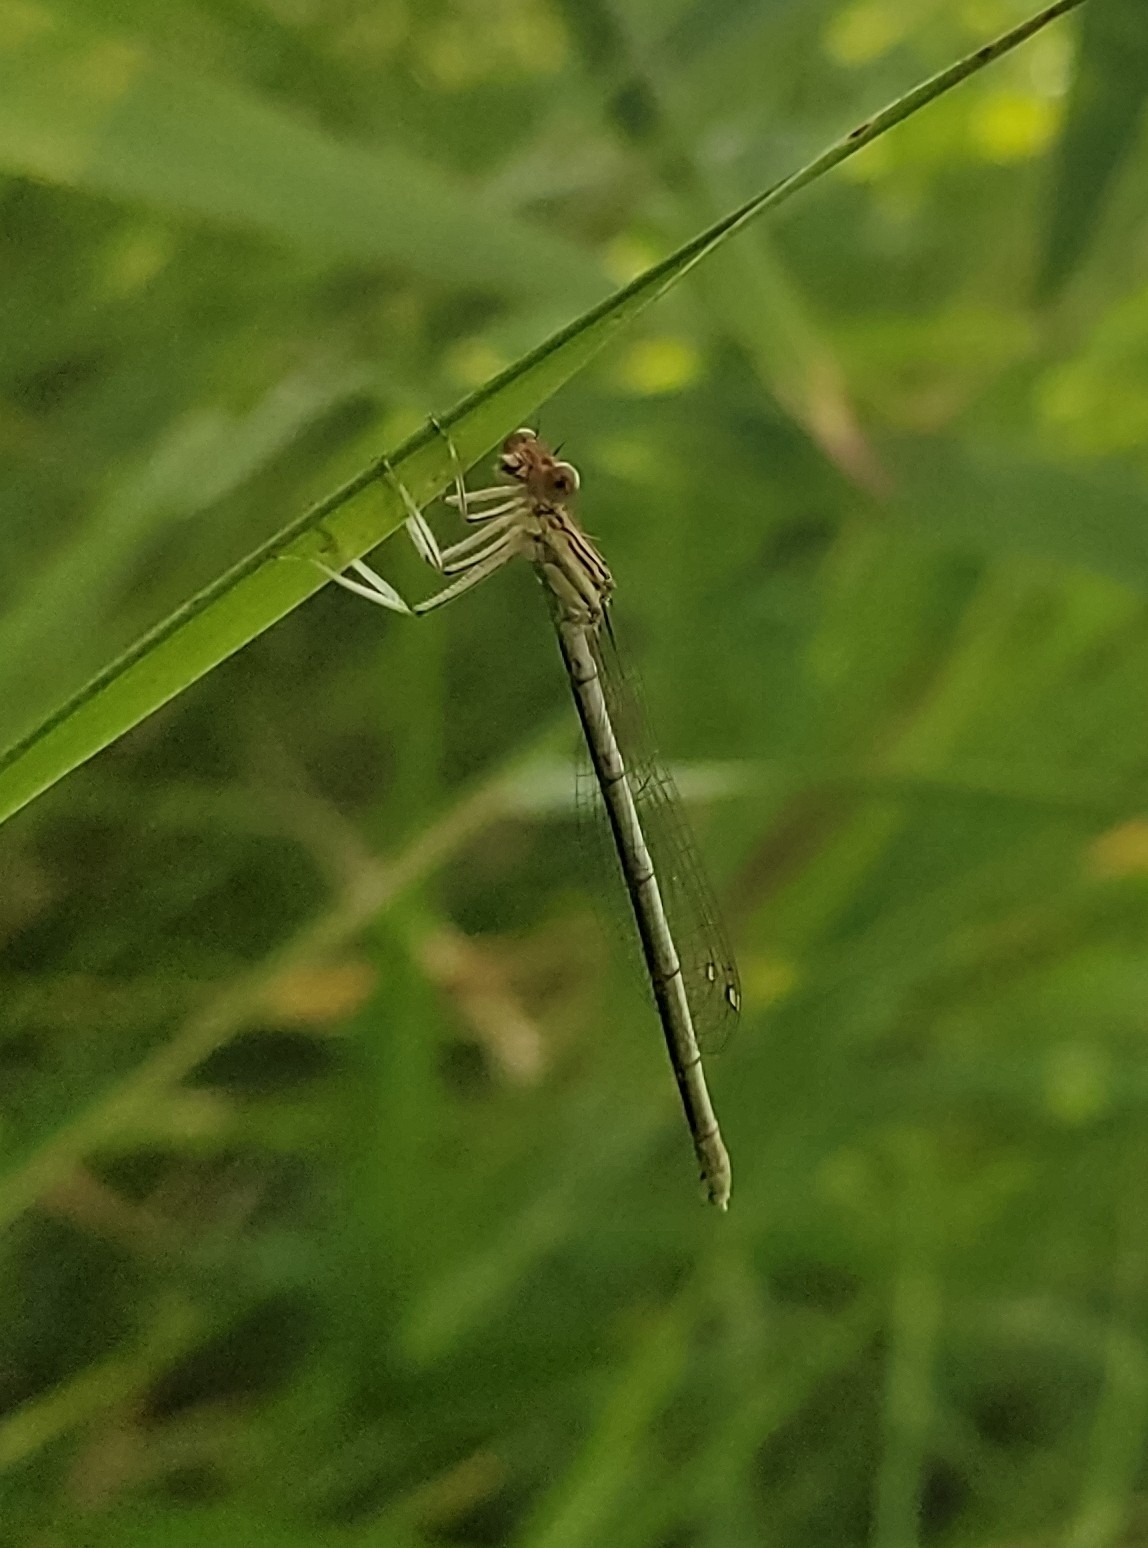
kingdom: Animalia
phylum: Arthropoda
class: Insecta
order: Odonata
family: Platycnemididae
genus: Platycnemis
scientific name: Platycnemis pennipes
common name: White-legged damselfly
